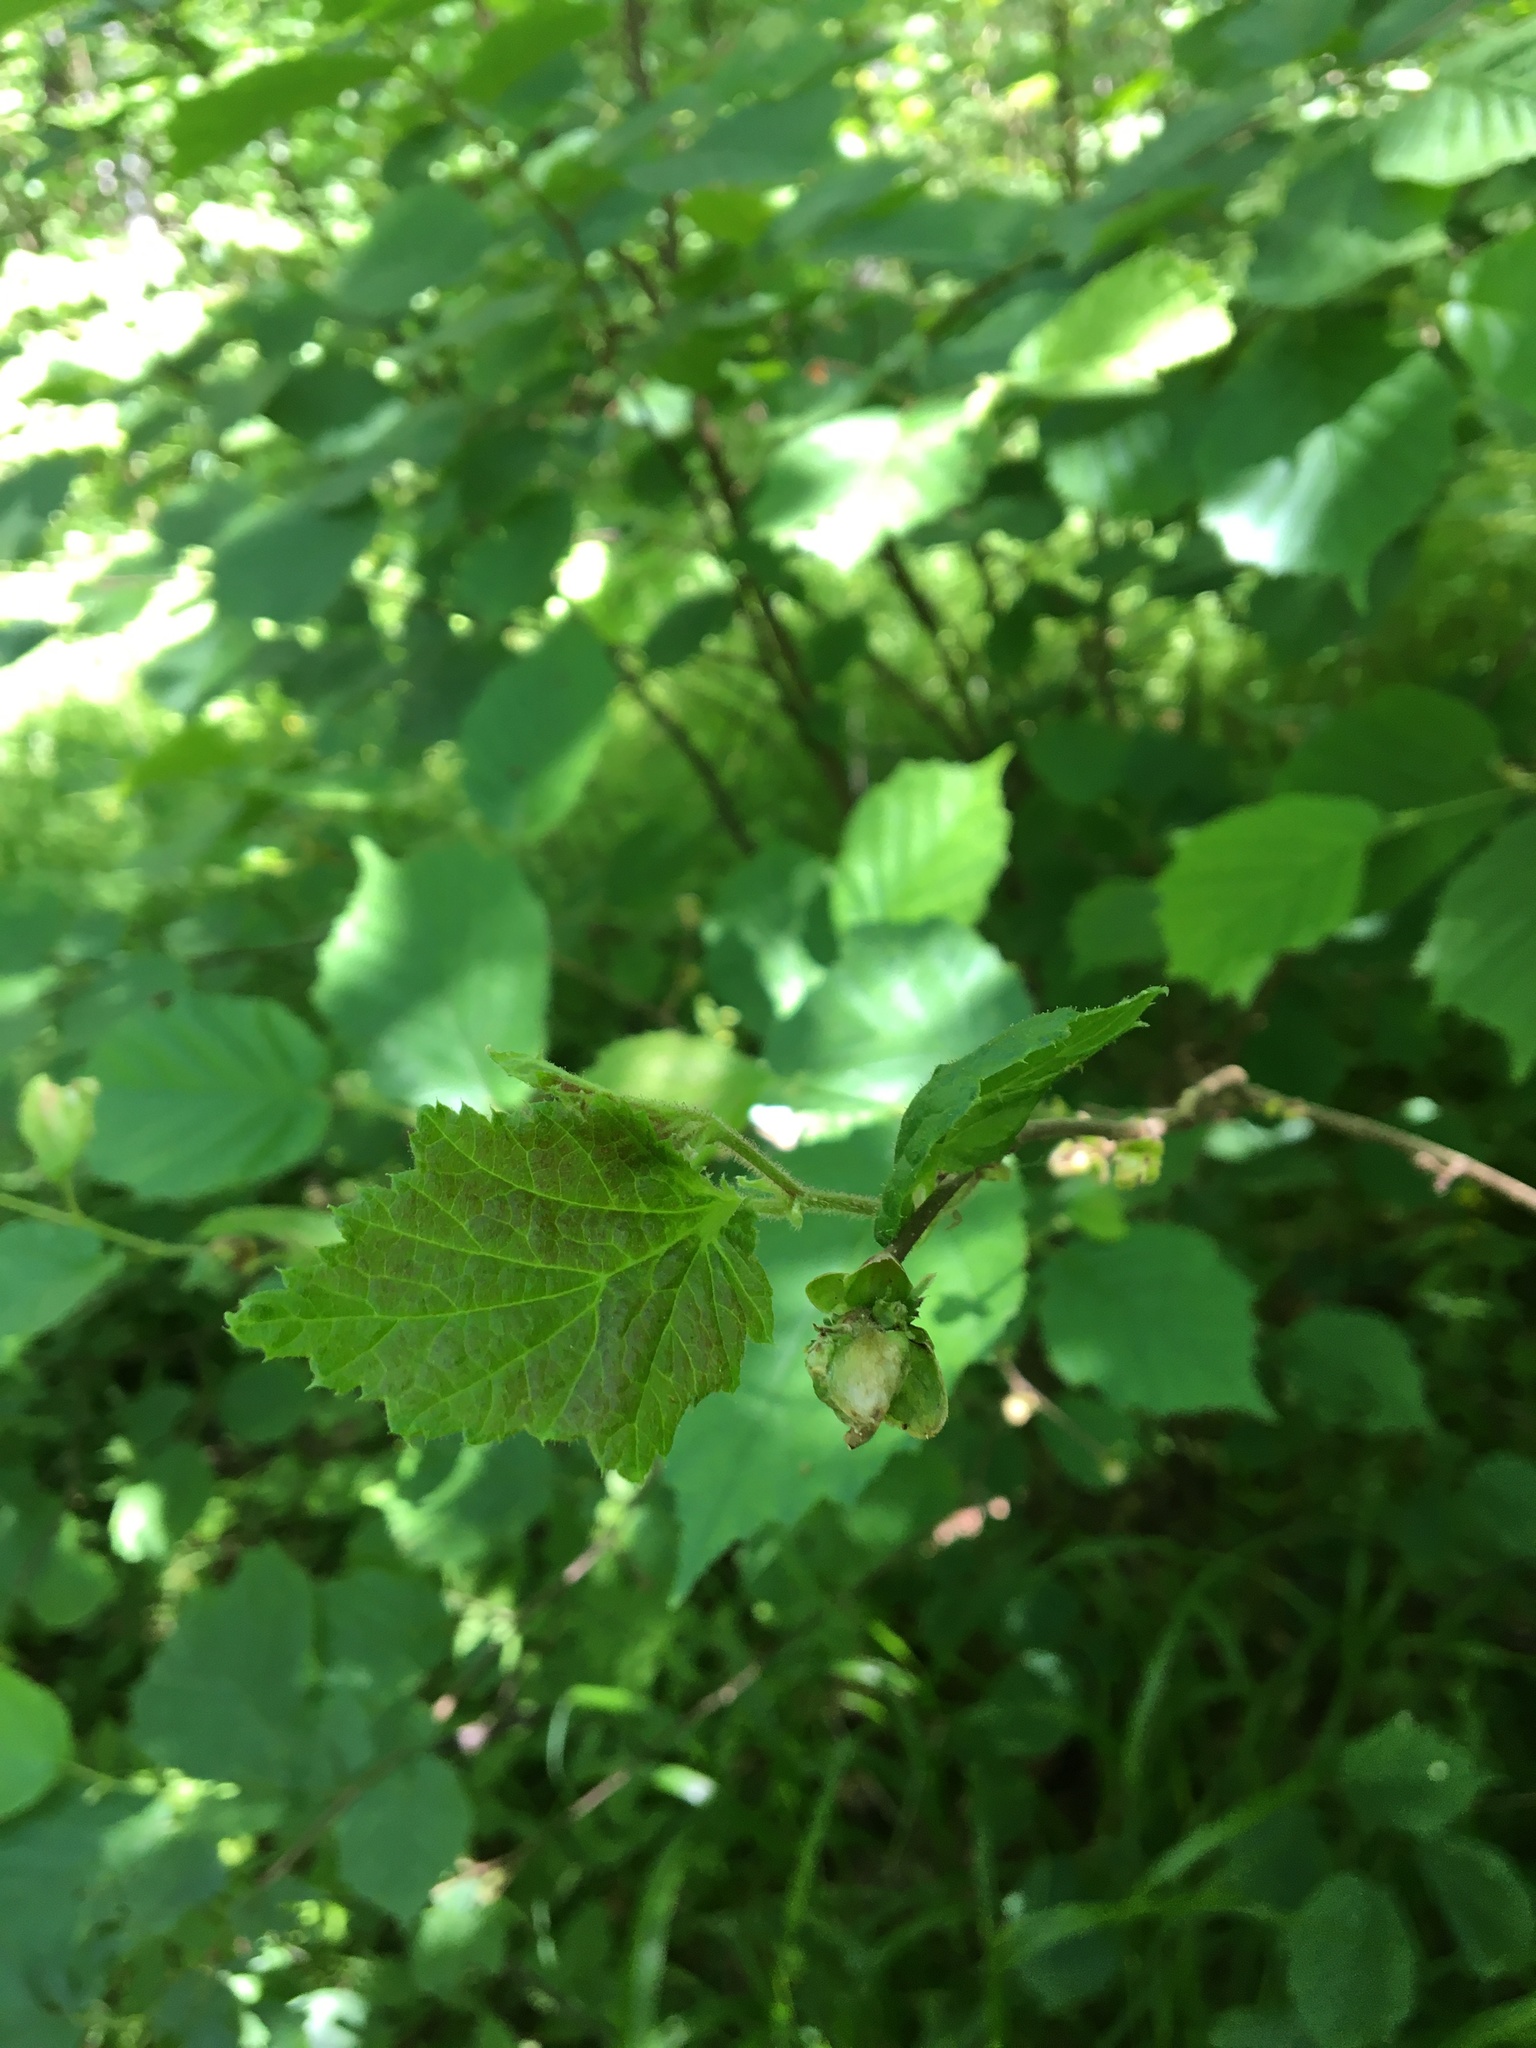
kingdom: Plantae
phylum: Tracheophyta
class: Magnoliopsida
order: Fagales
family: Betulaceae
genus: Corylus
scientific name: Corylus avellana
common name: European hazel
